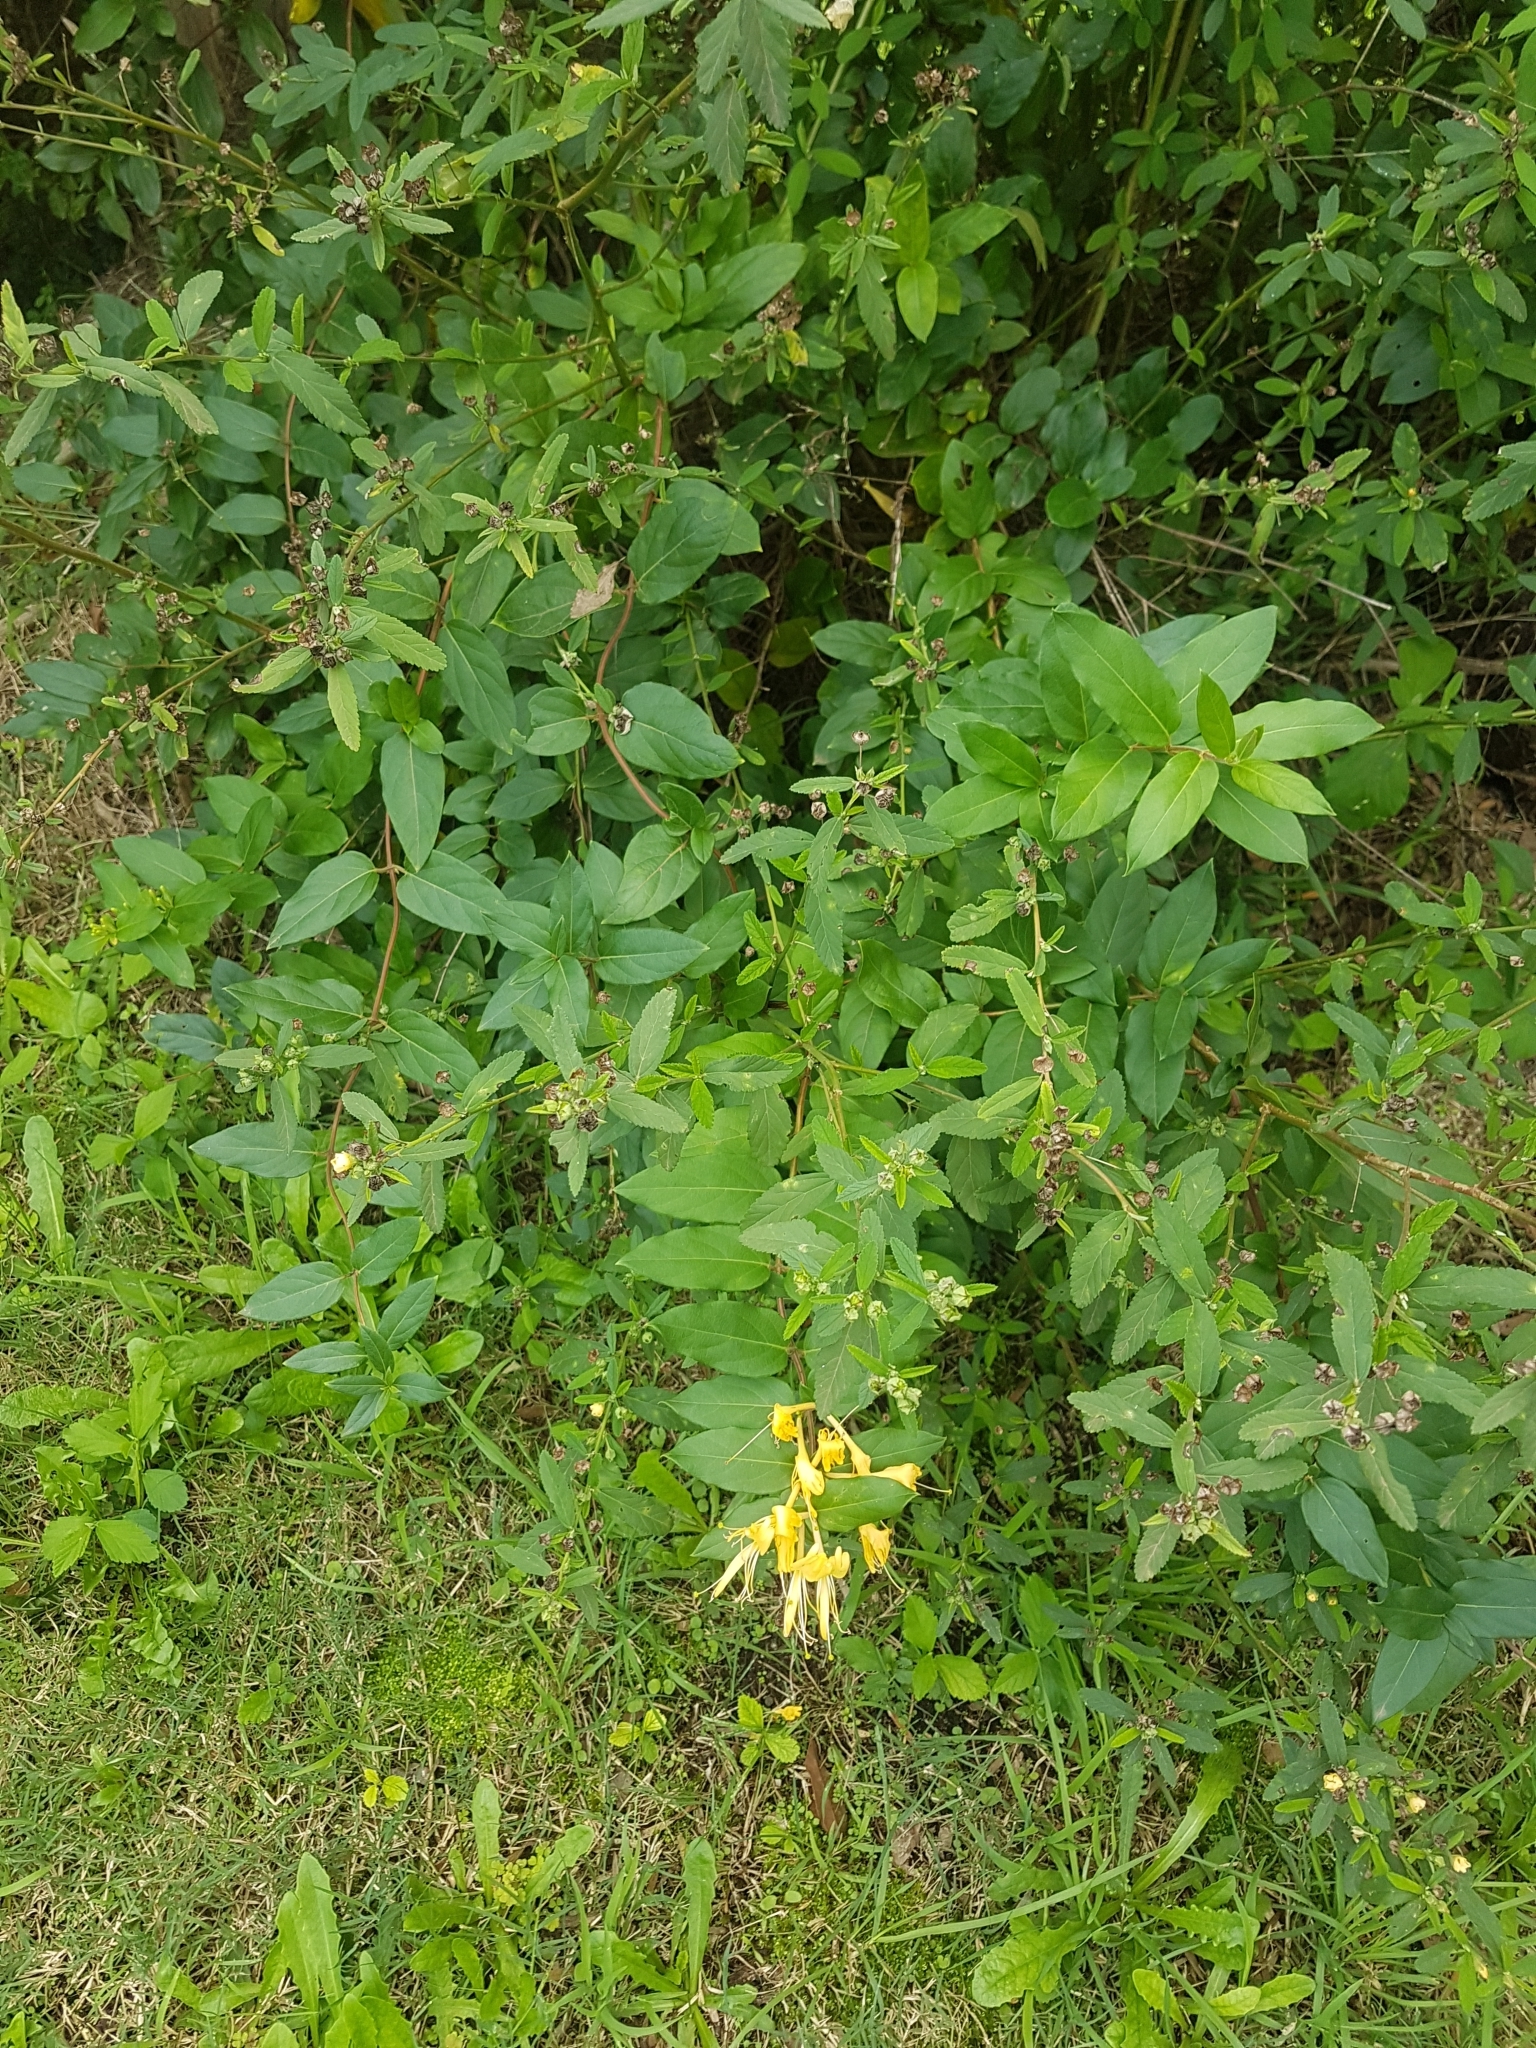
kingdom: Plantae
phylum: Tracheophyta
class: Magnoliopsida
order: Dipsacales
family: Caprifoliaceae
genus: Lonicera
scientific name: Lonicera japonica
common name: Japanese honeysuckle
